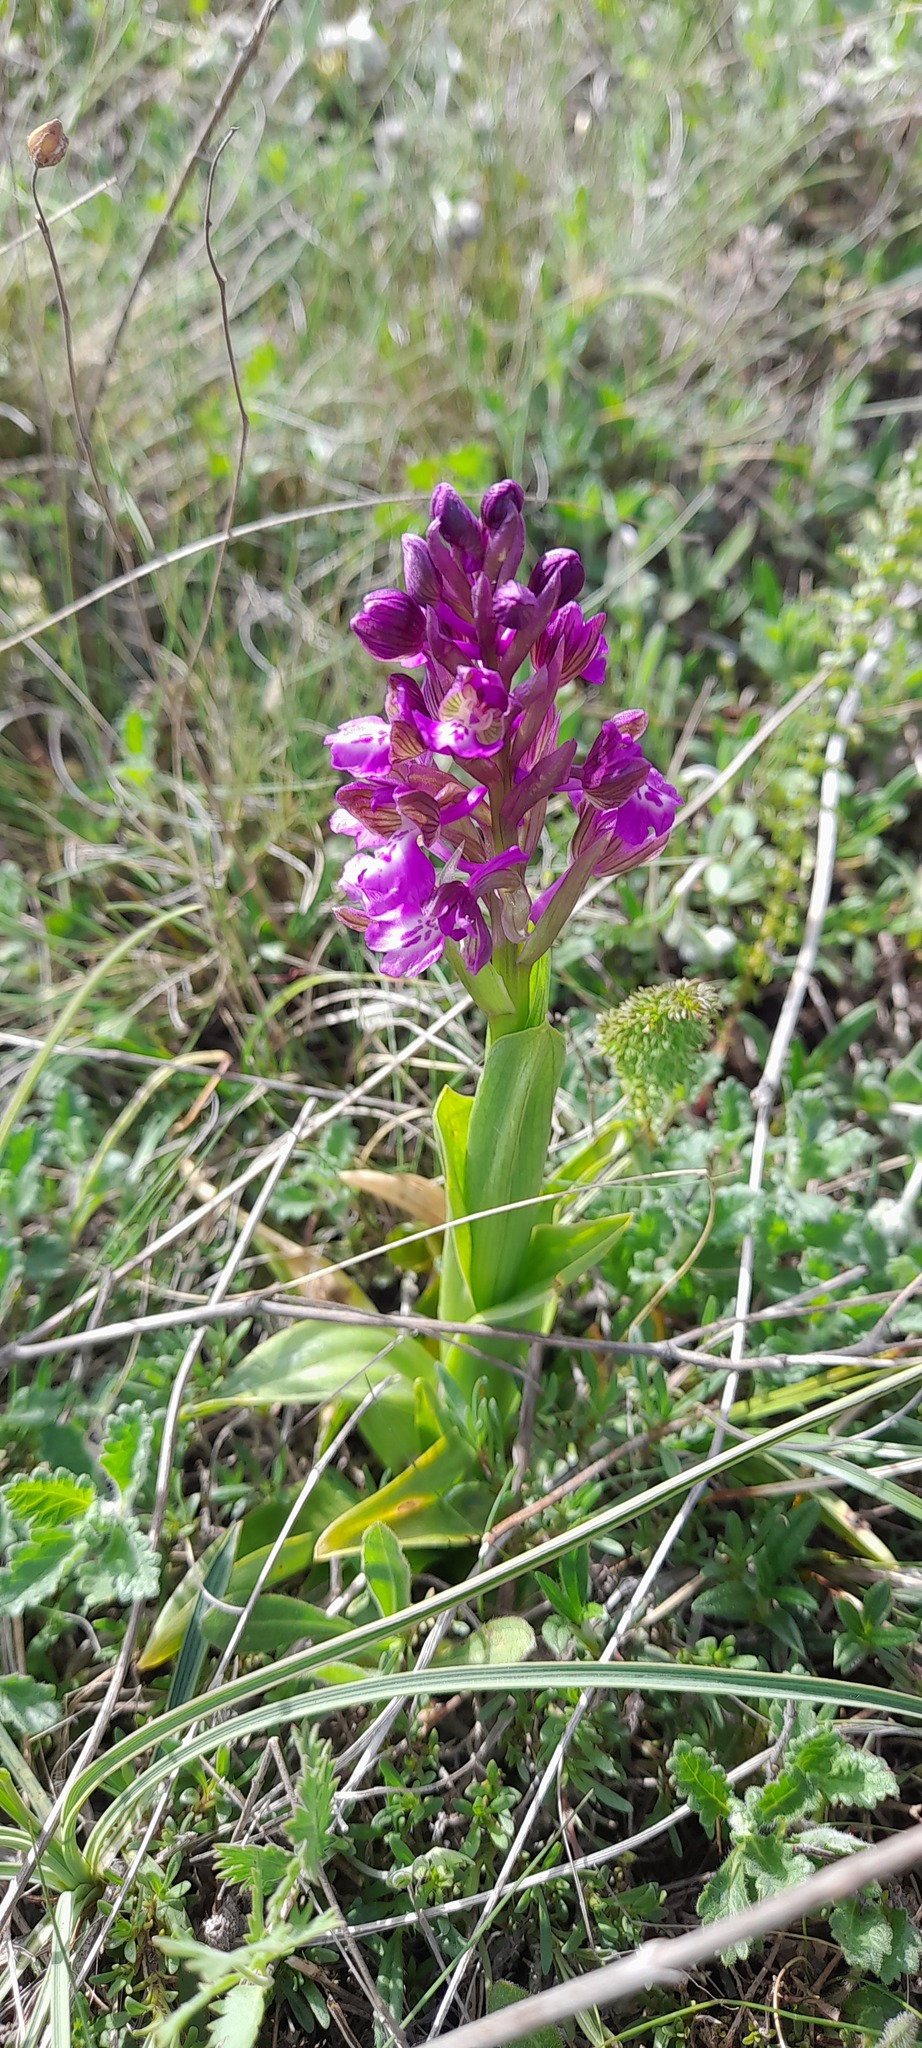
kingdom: Plantae
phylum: Tracheophyta
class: Liliopsida
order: Asparagales
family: Orchidaceae
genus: Anacamptis
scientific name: Anacamptis morio
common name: Green-winged orchid
